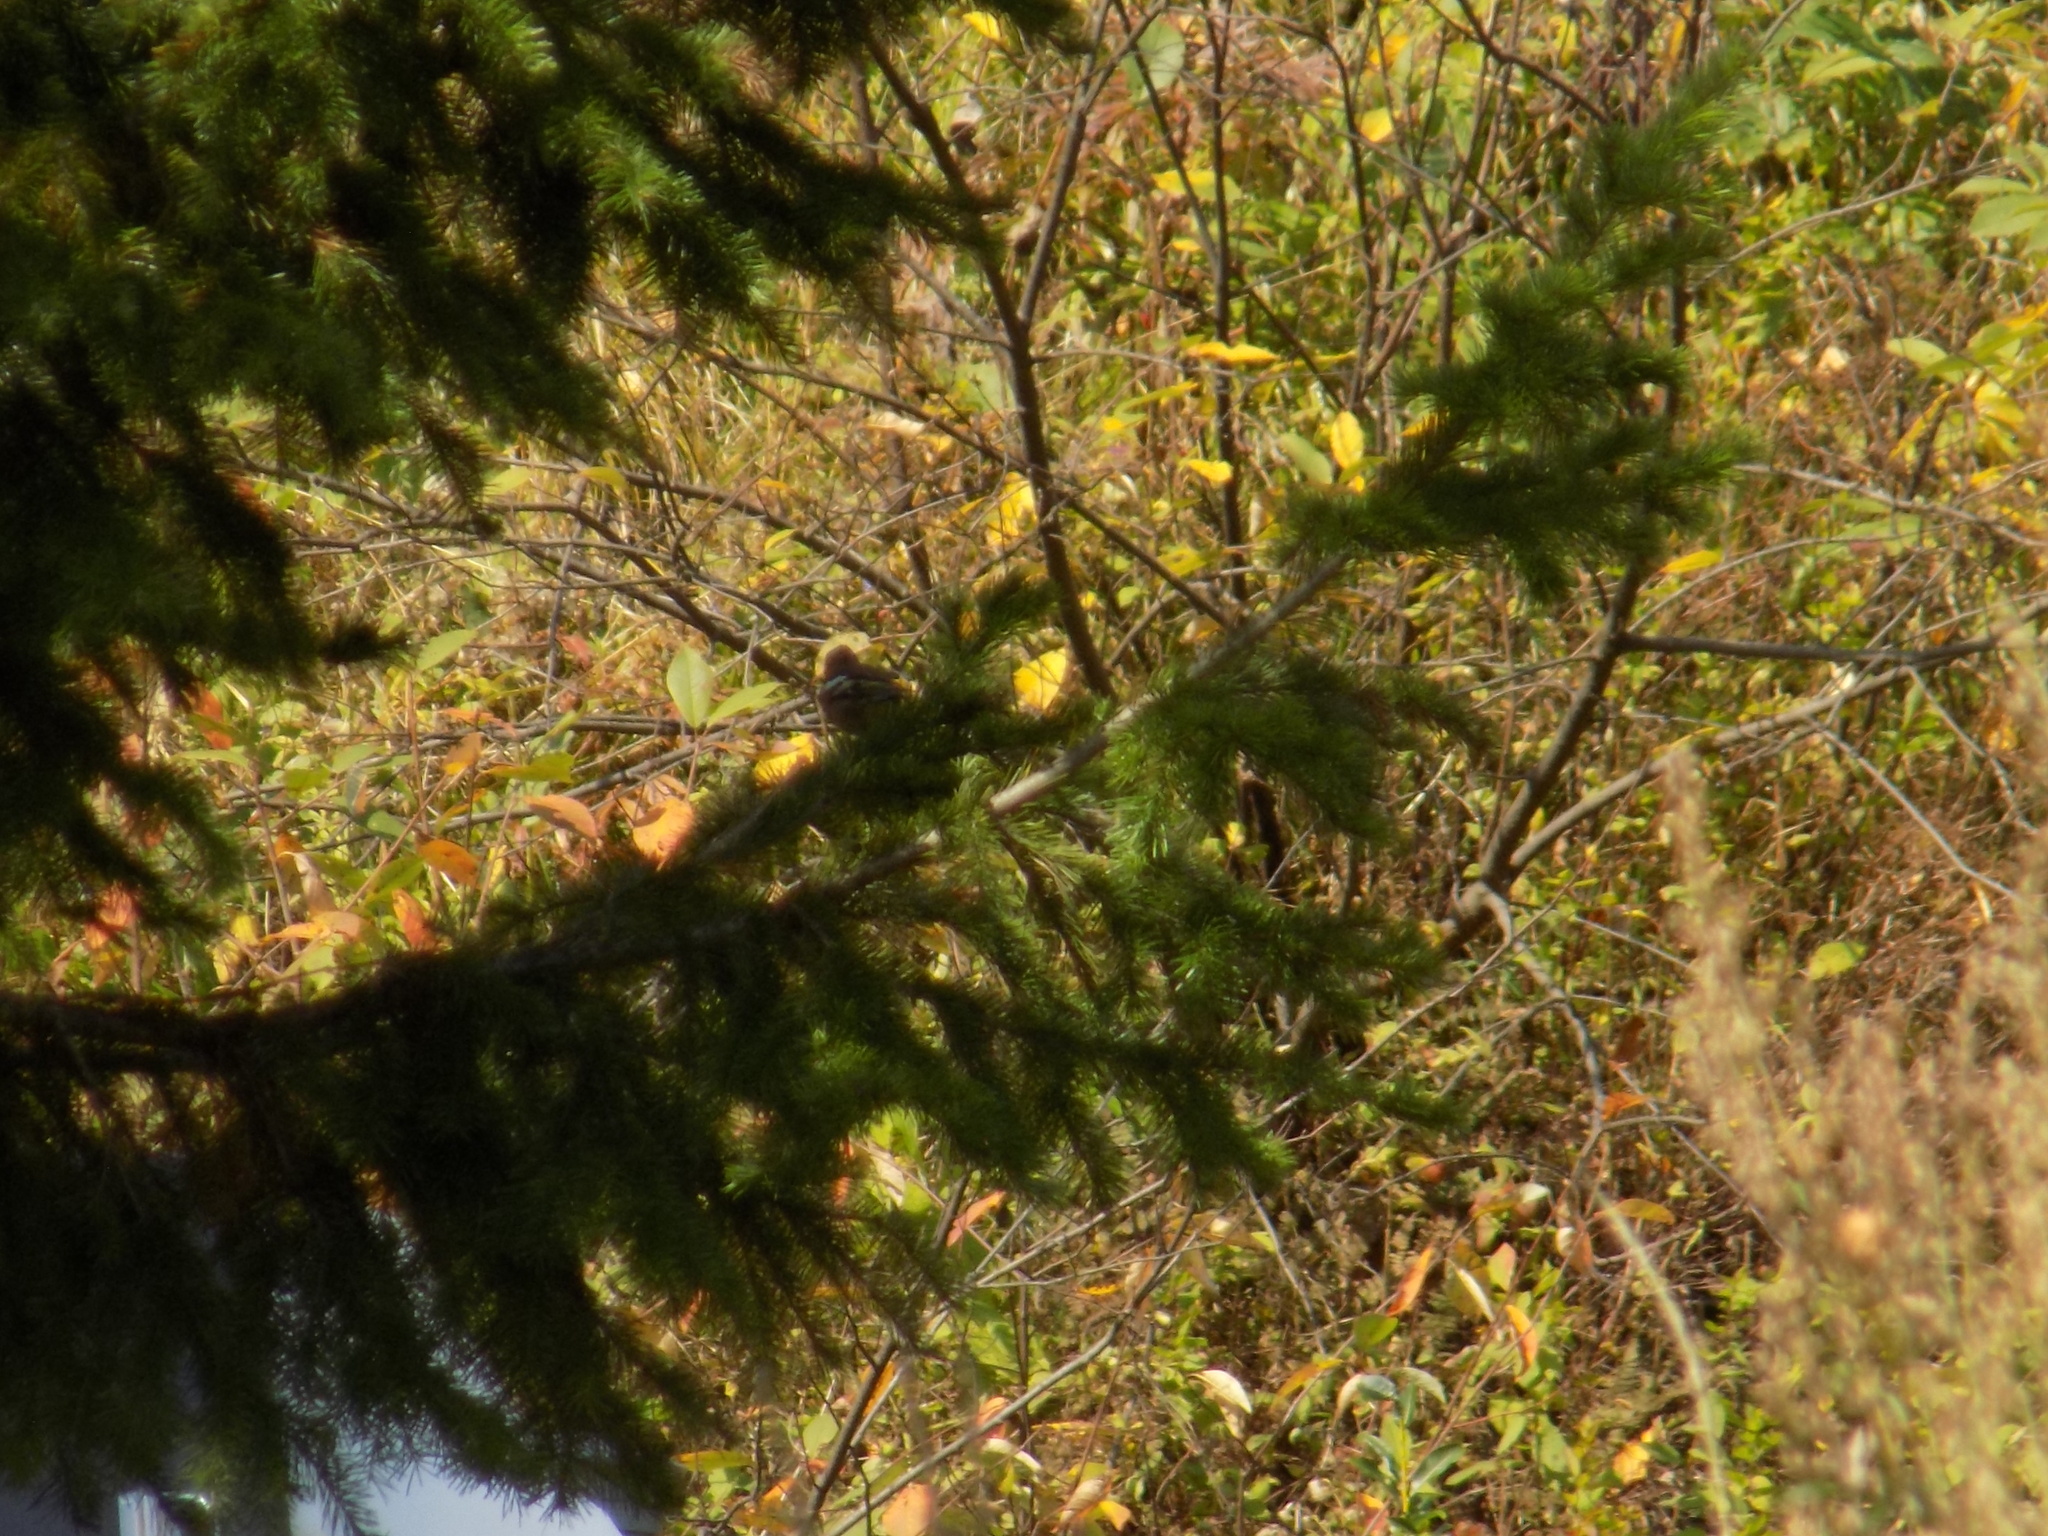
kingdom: Animalia
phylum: Chordata
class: Aves
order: Passeriformes
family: Fringillidae
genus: Fringilla
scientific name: Fringilla coelebs
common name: Common chaffinch
